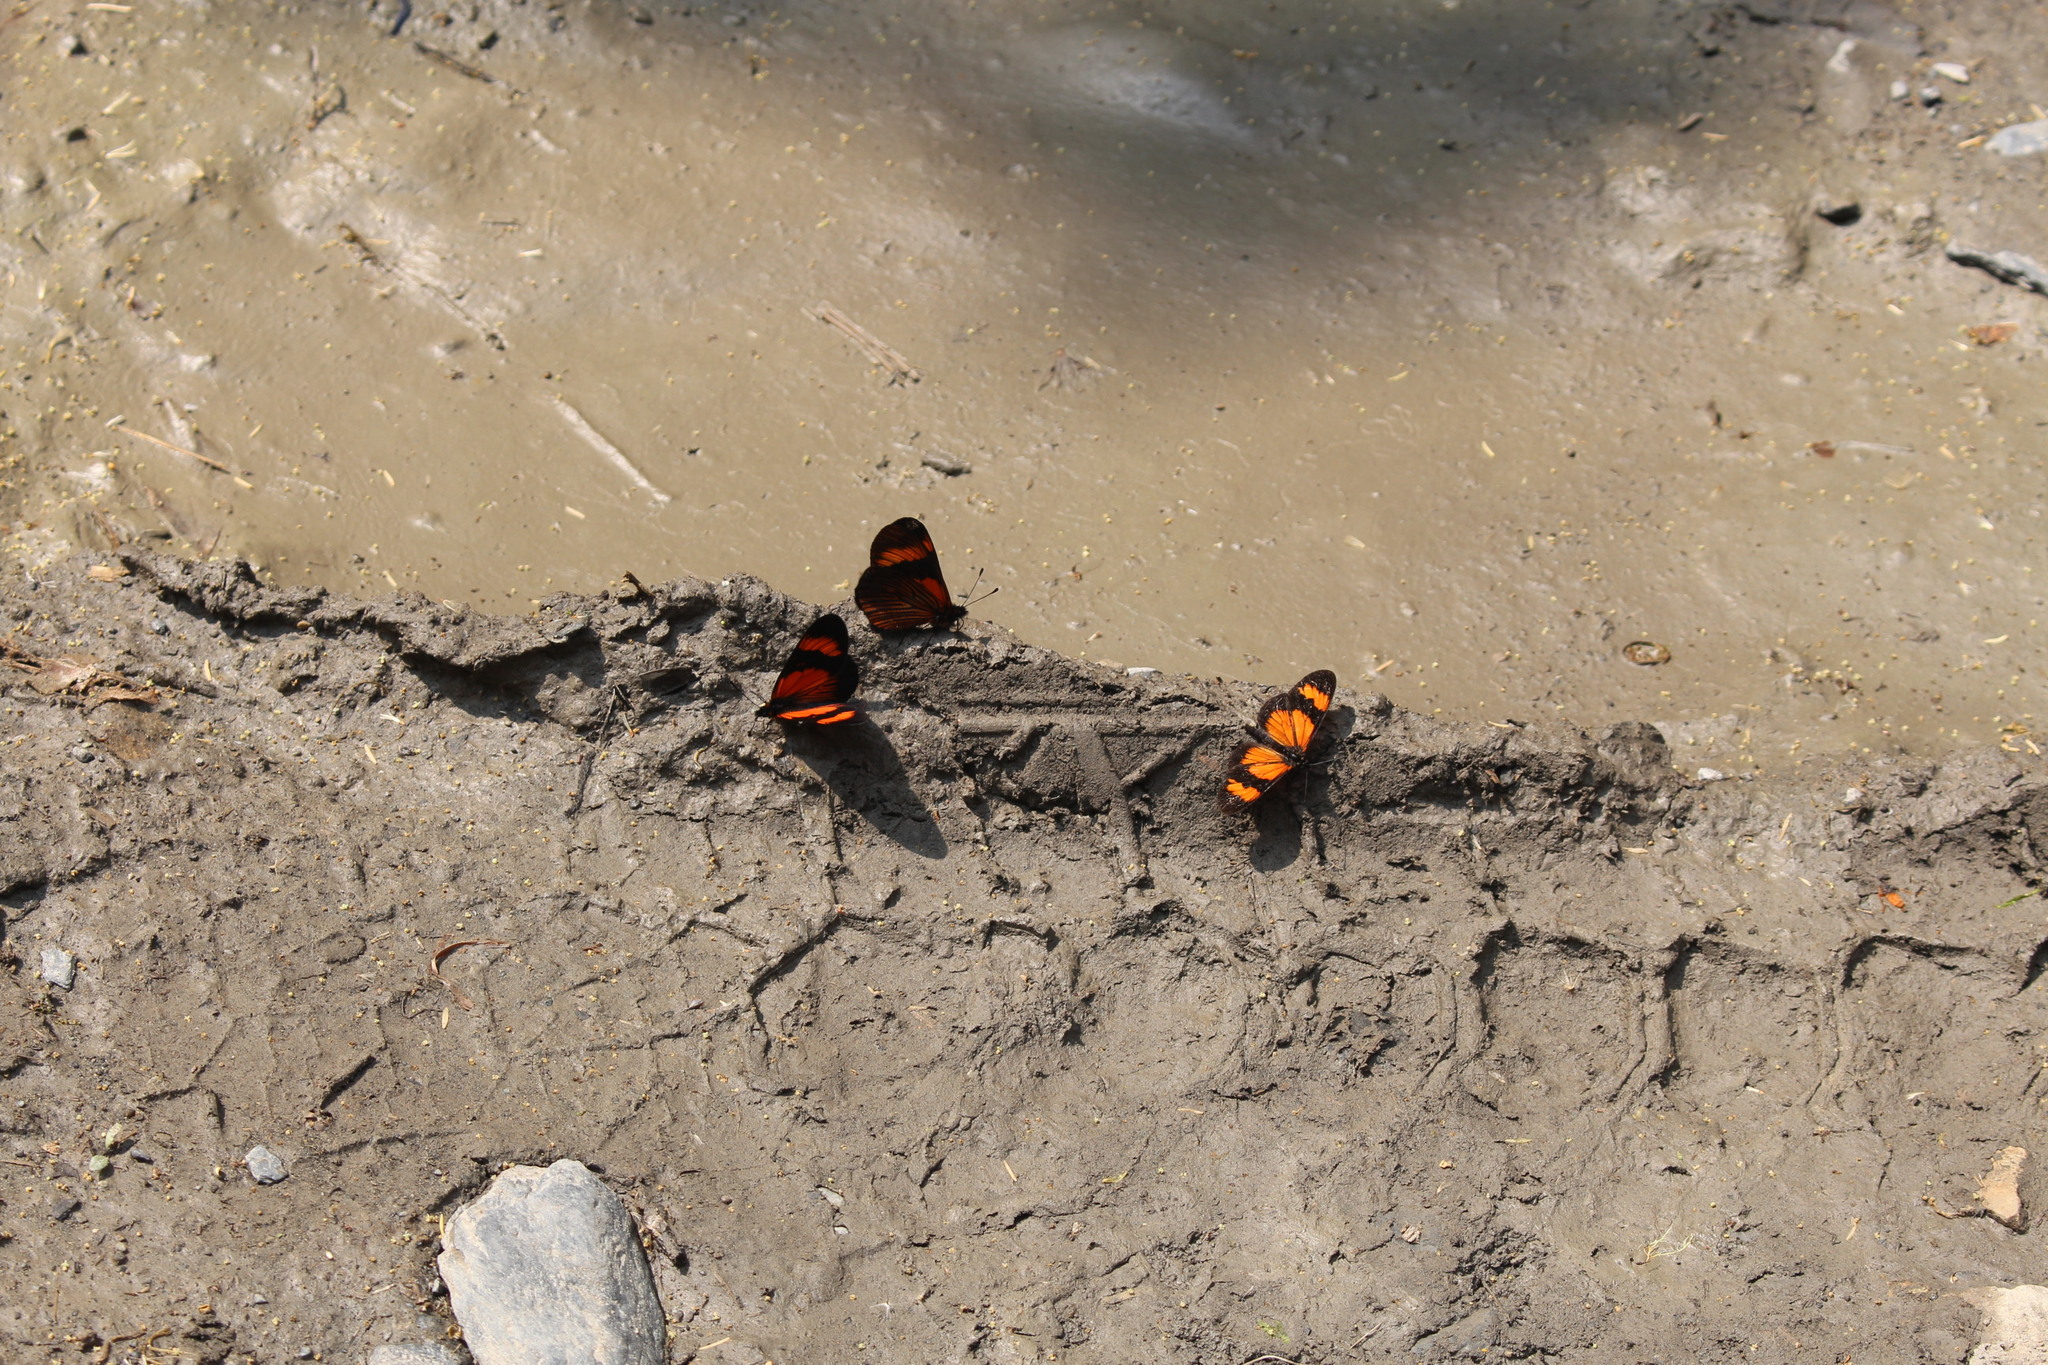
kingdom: Animalia
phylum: Arthropoda
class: Insecta
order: Lepidoptera
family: Nymphalidae
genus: Actinote
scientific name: Actinote negra
